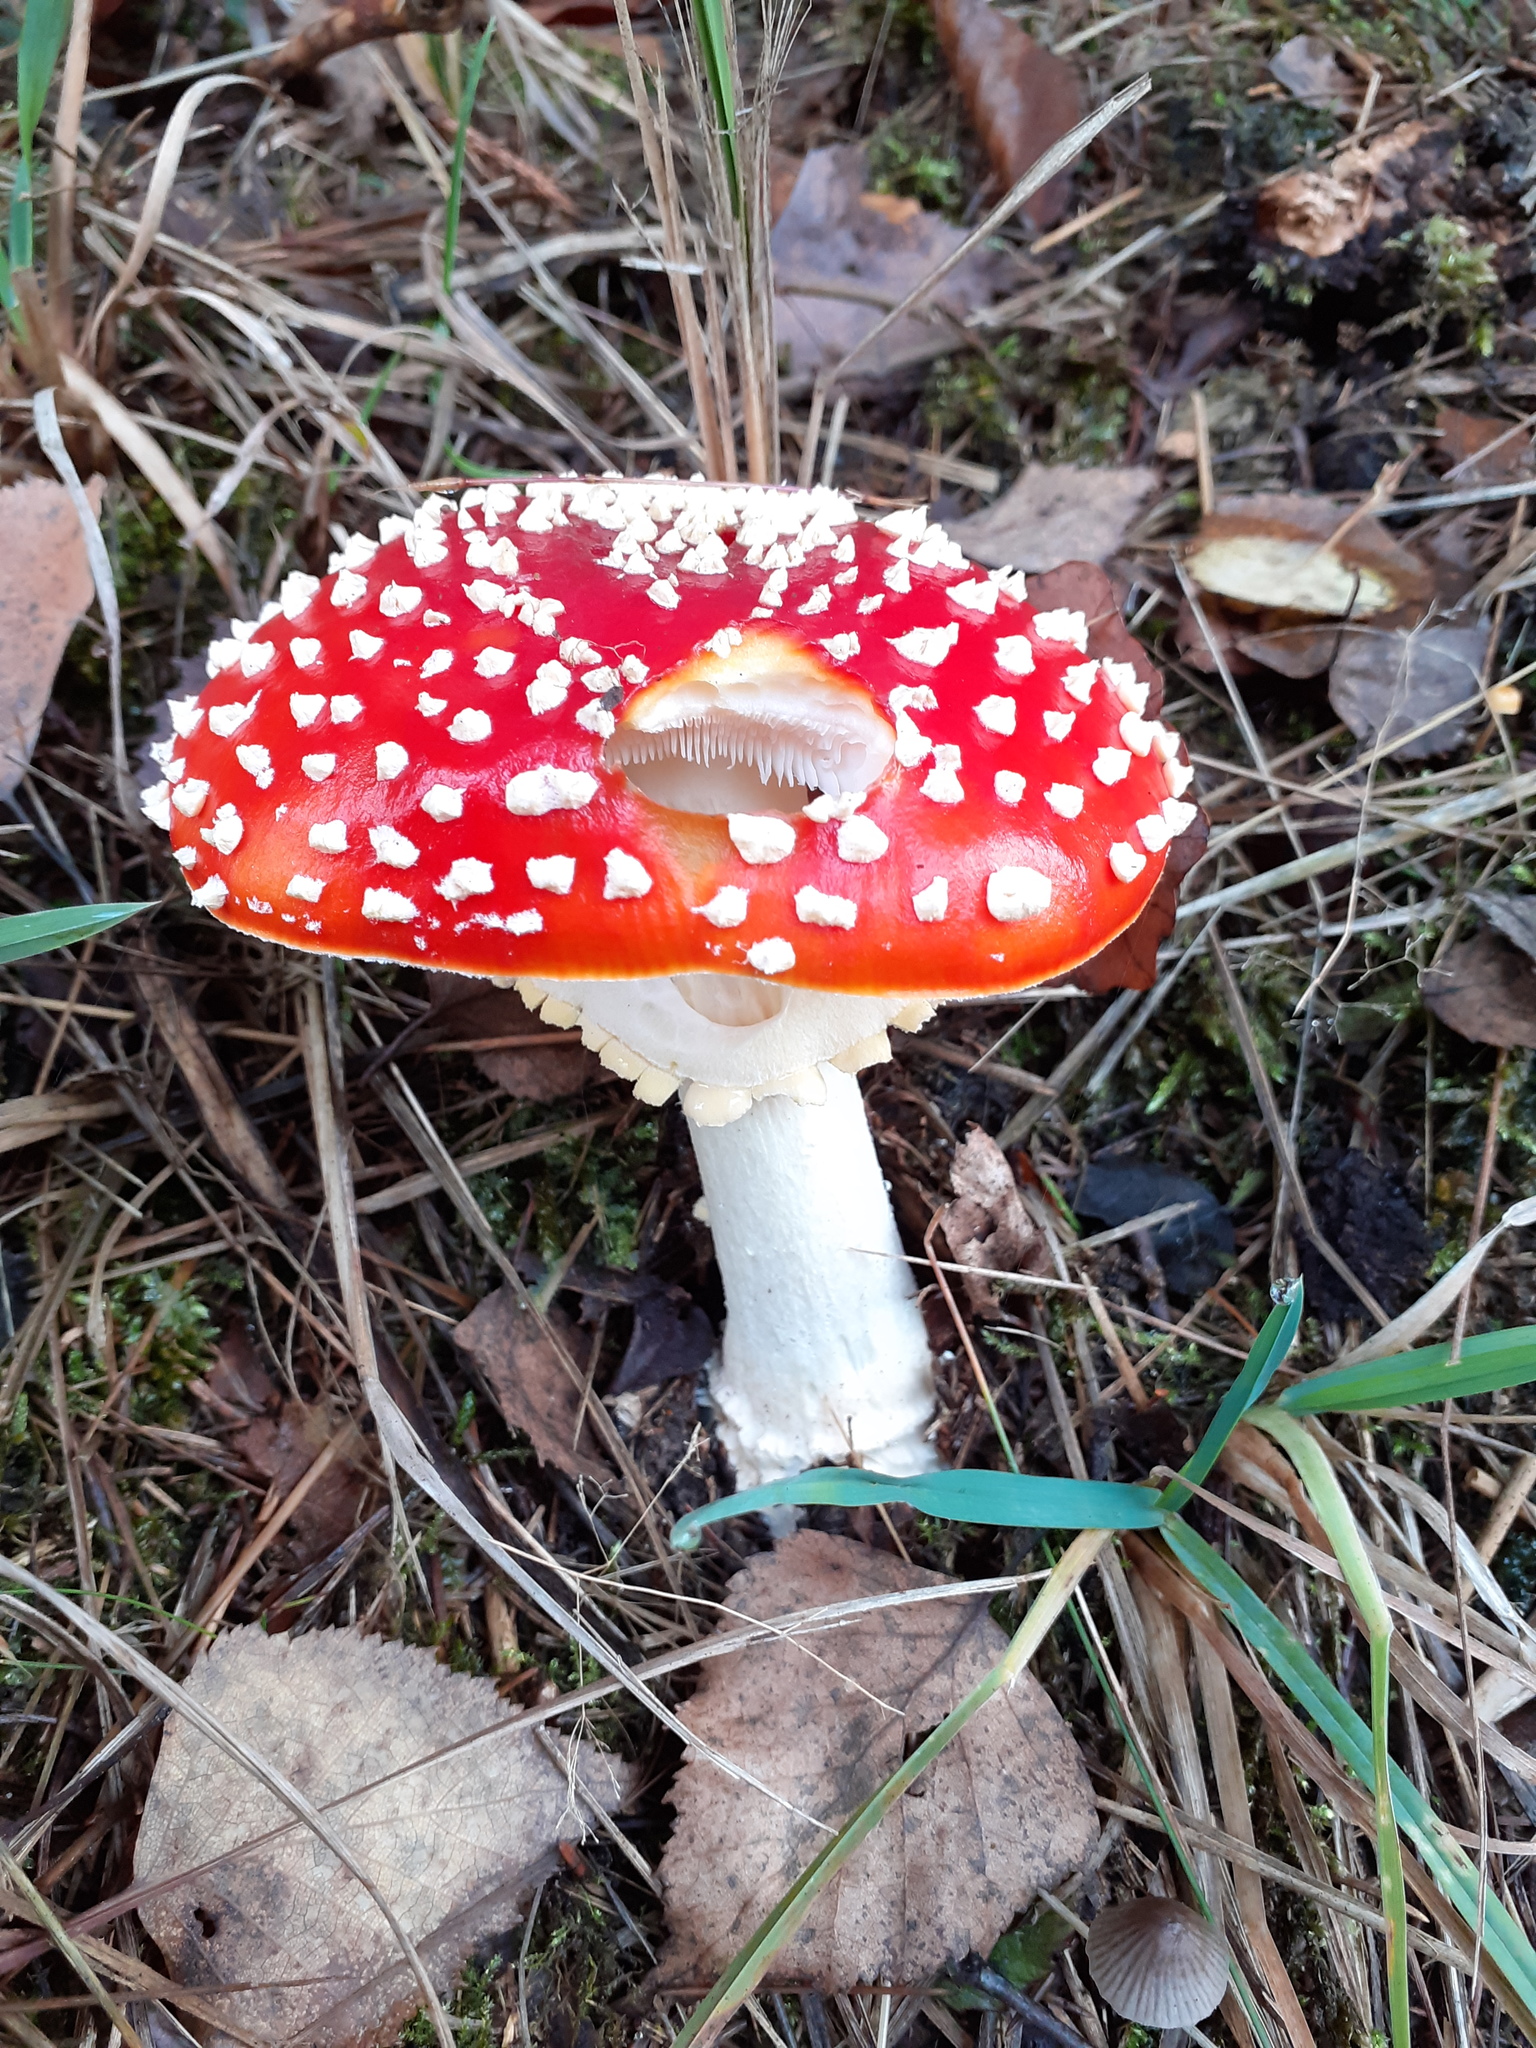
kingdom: Fungi
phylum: Basidiomycota
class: Agaricomycetes
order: Agaricales
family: Amanitaceae
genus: Amanita
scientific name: Amanita muscaria
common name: Fly agaric
